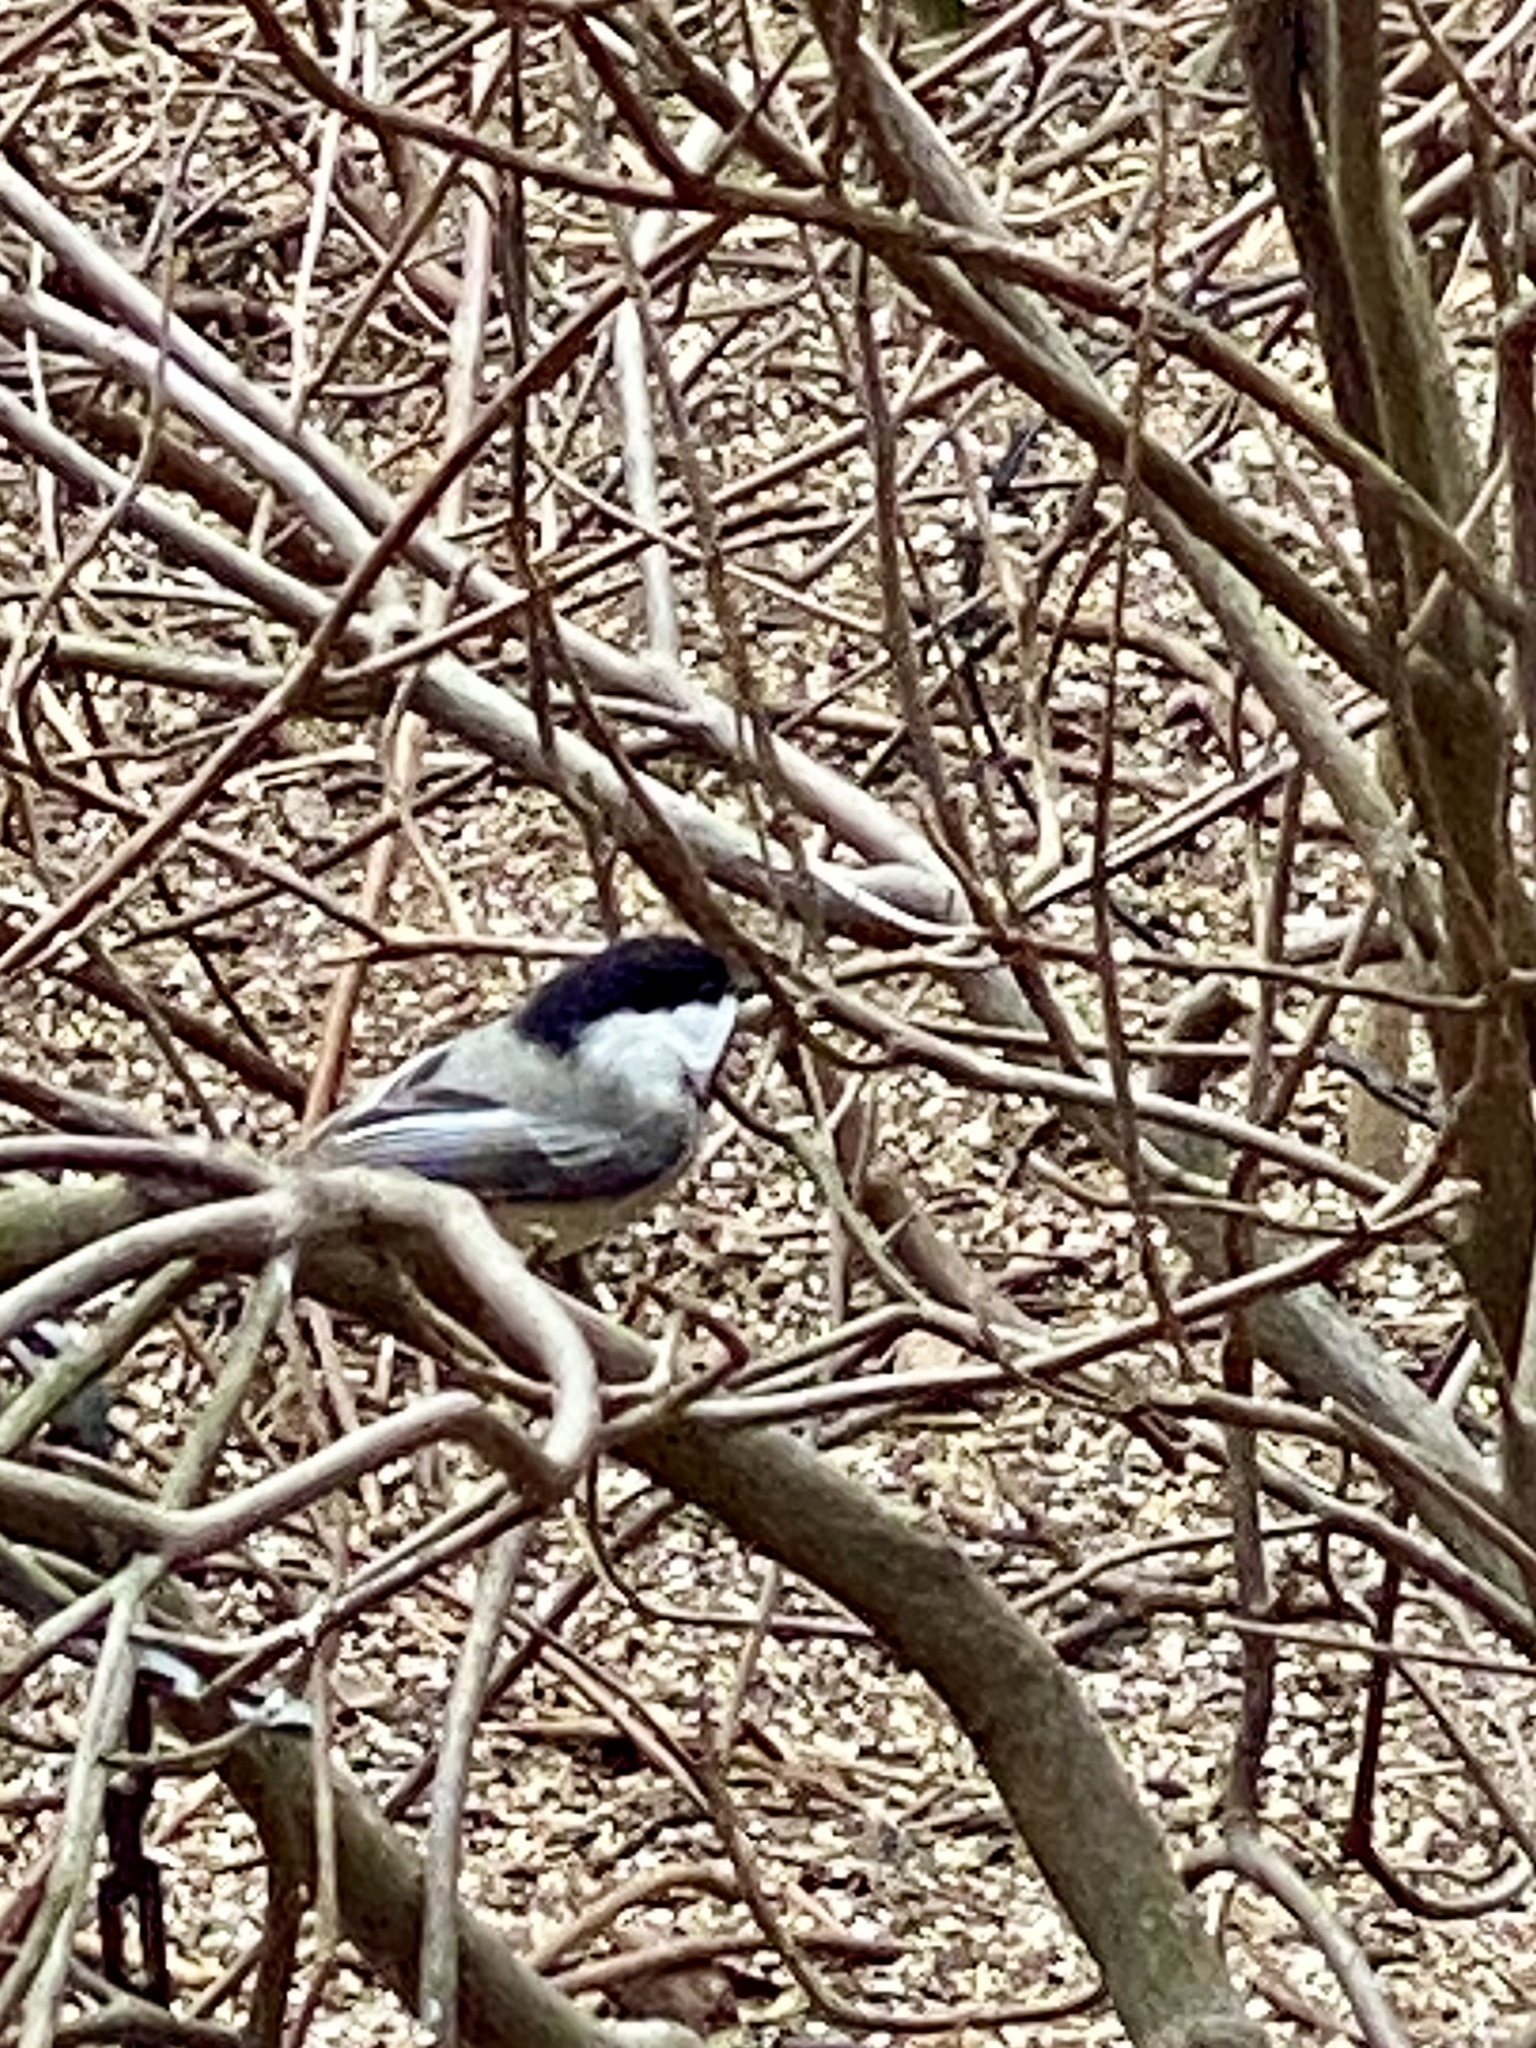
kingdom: Animalia
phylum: Chordata
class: Aves
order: Passeriformes
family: Paridae
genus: Poecile
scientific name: Poecile atricapillus
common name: Black-capped chickadee
